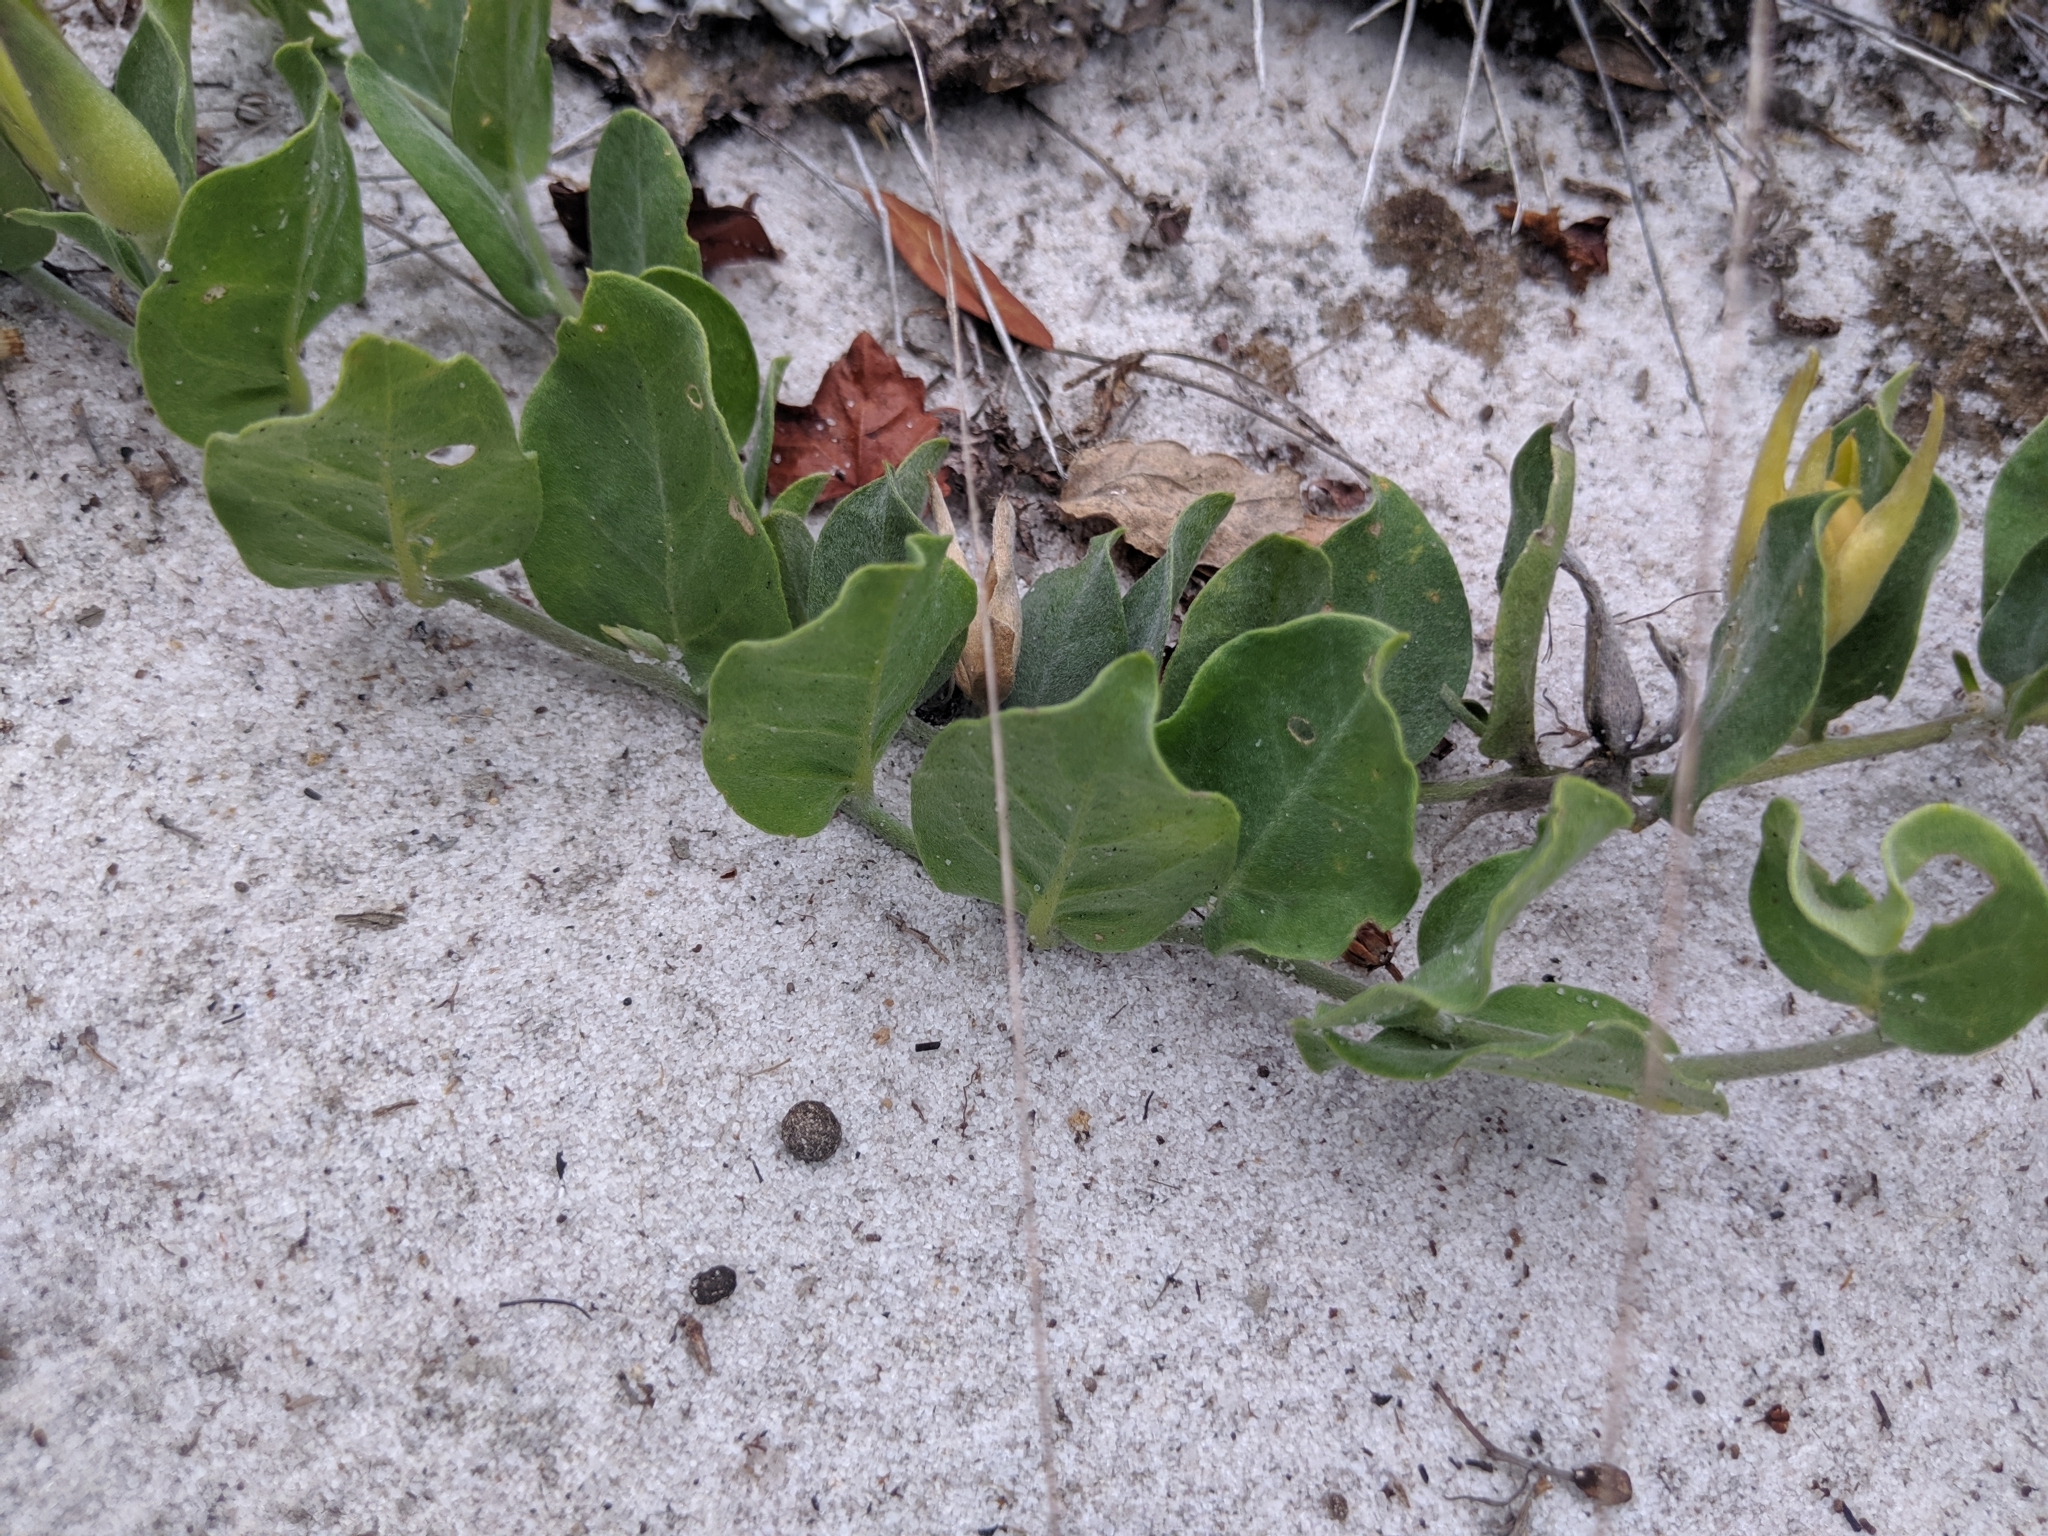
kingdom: Plantae
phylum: Tracheophyta
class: Magnoliopsida
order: Solanales
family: Convolvulaceae
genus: Bonamia
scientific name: Bonamia grandiflora
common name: Florida bonamia
